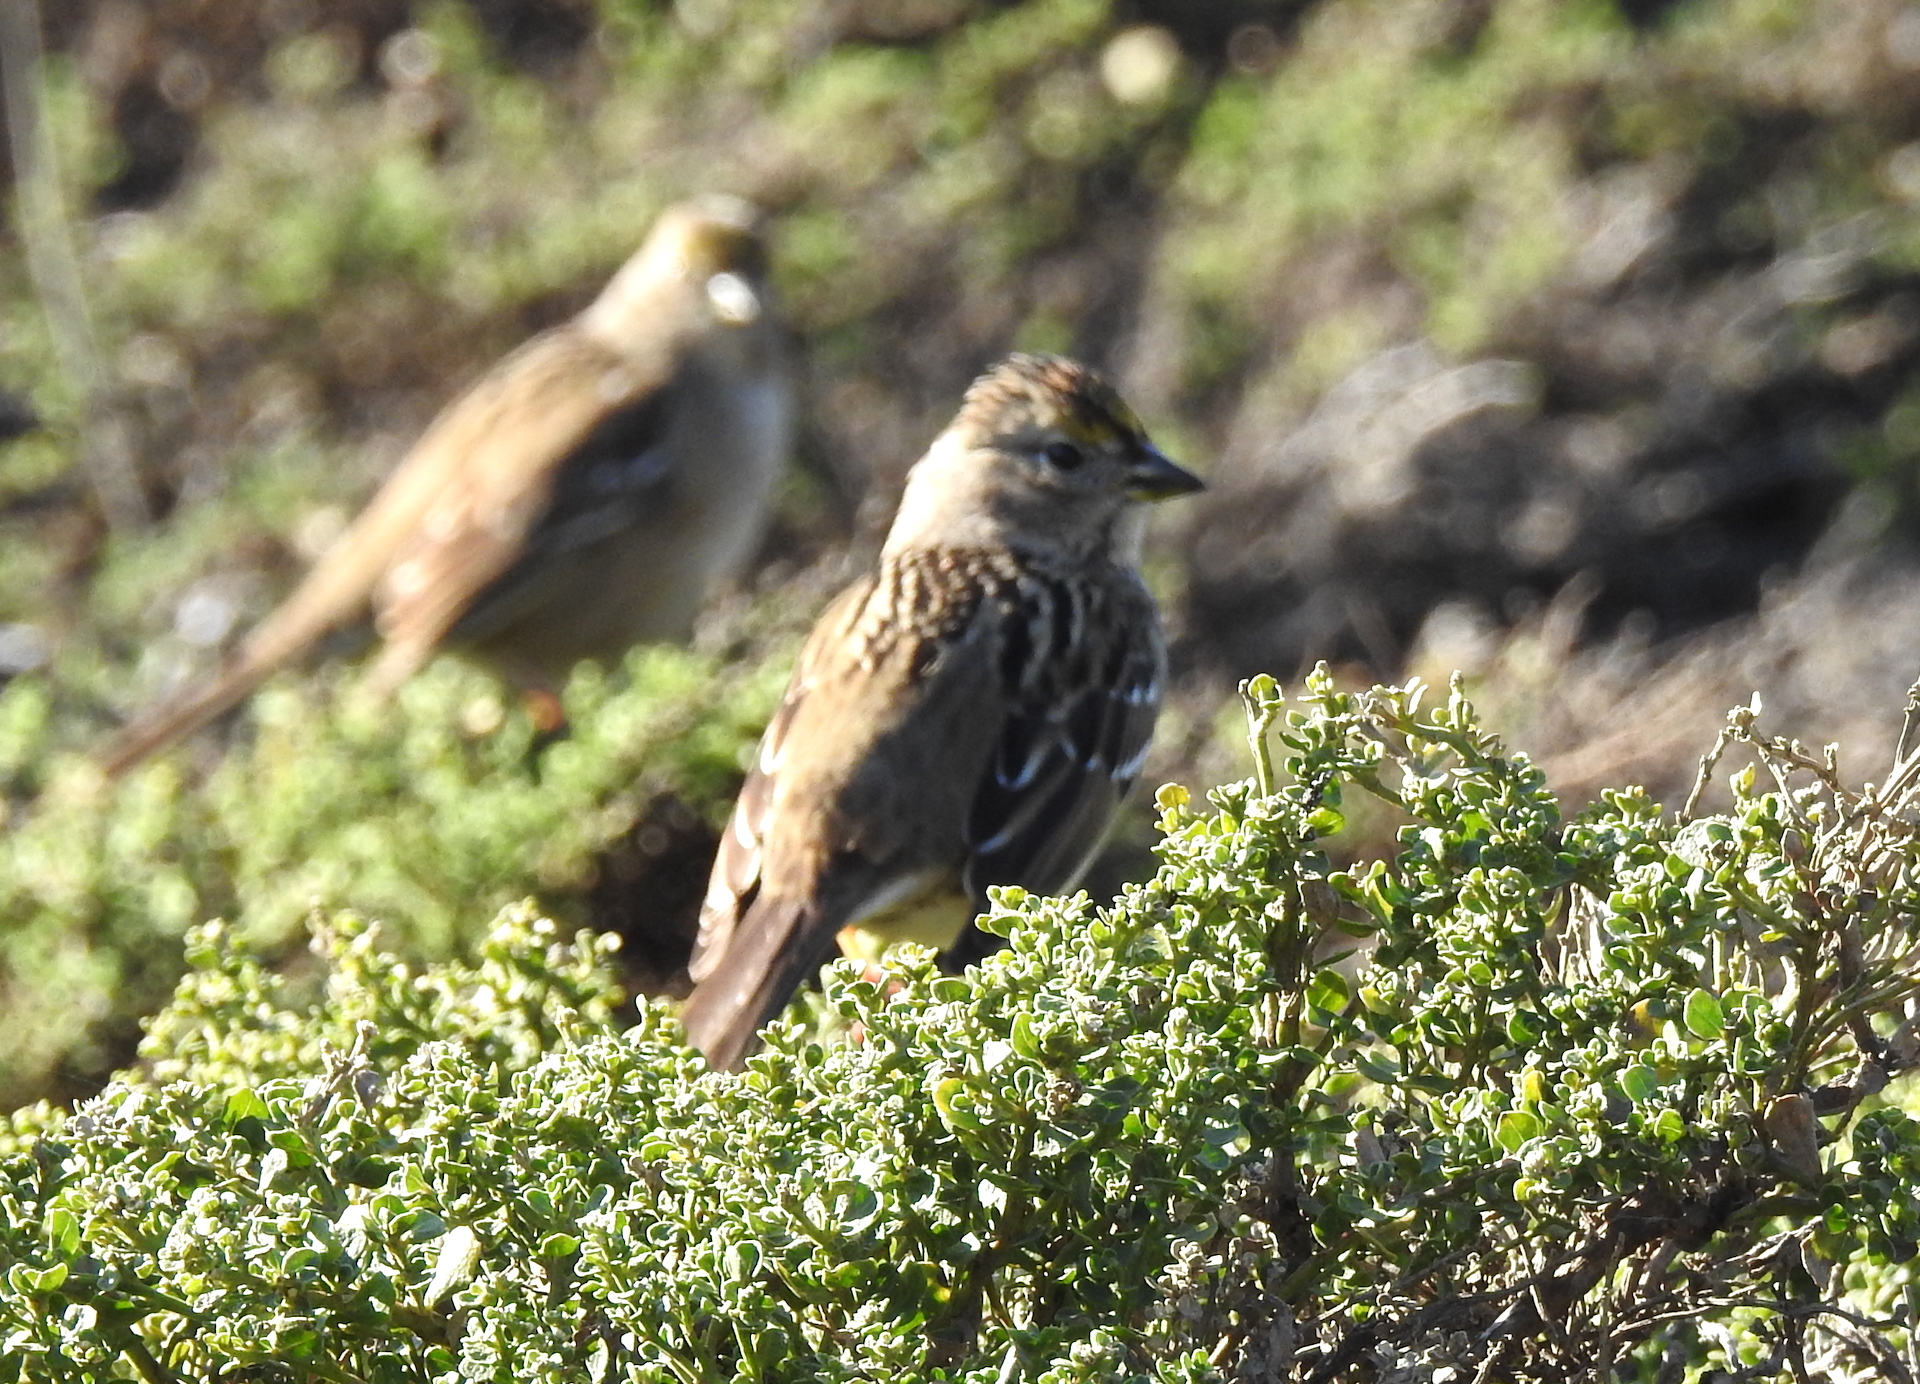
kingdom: Animalia
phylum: Chordata
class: Aves
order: Passeriformes
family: Passerellidae
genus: Zonotrichia
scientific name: Zonotrichia atricapilla
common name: Golden-crowned sparrow
